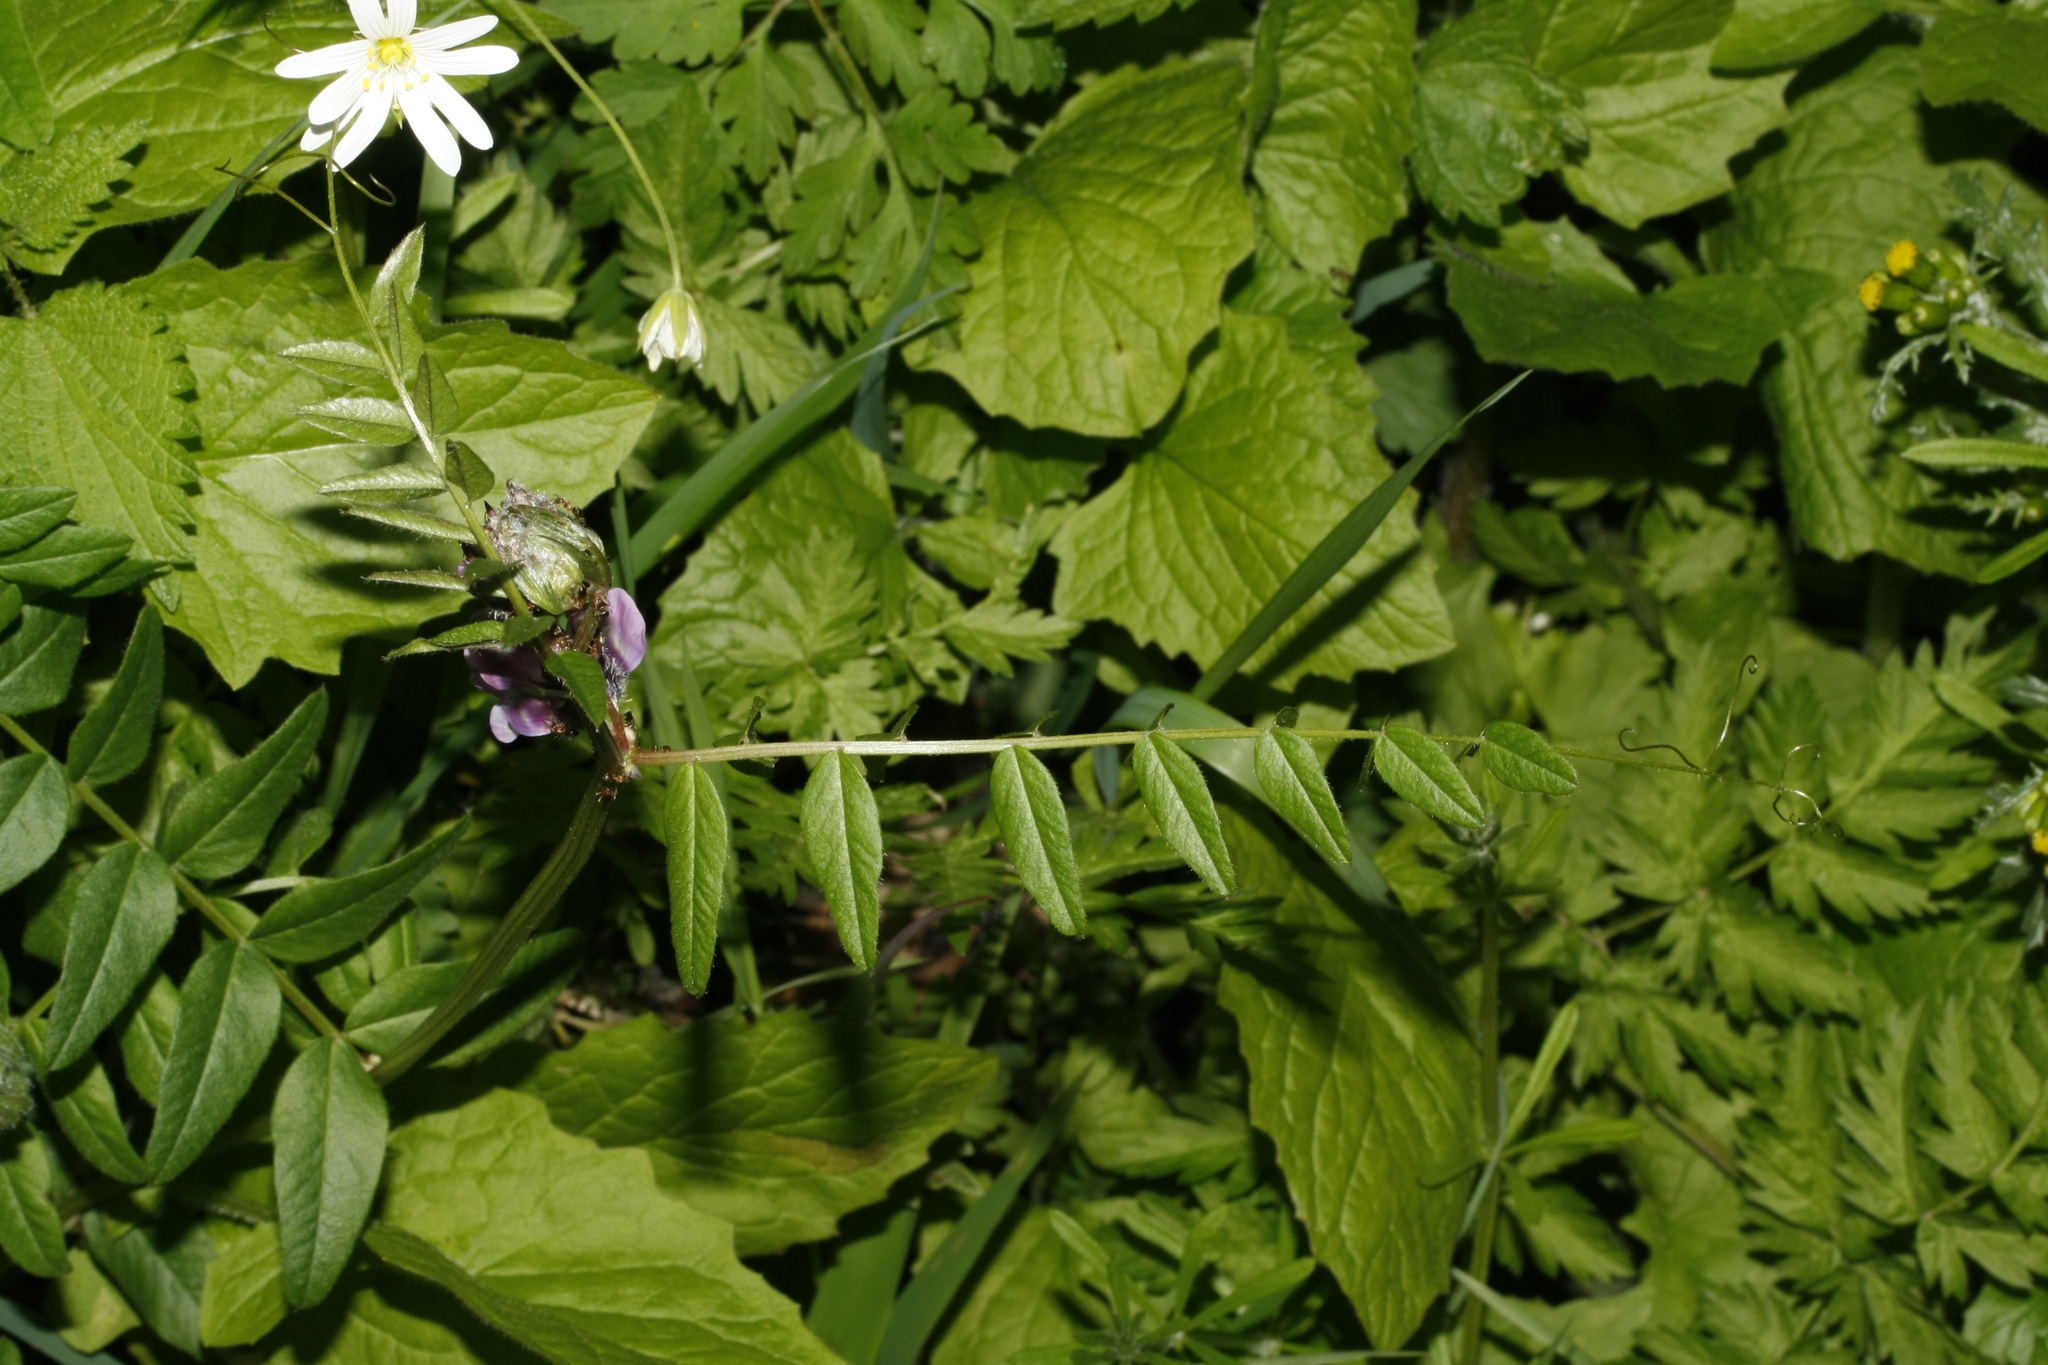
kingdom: Plantae
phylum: Tracheophyta
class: Magnoliopsida
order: Fabales
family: Fabaceae
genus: Vicia
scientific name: Vicia sepium
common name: Bush vetch
